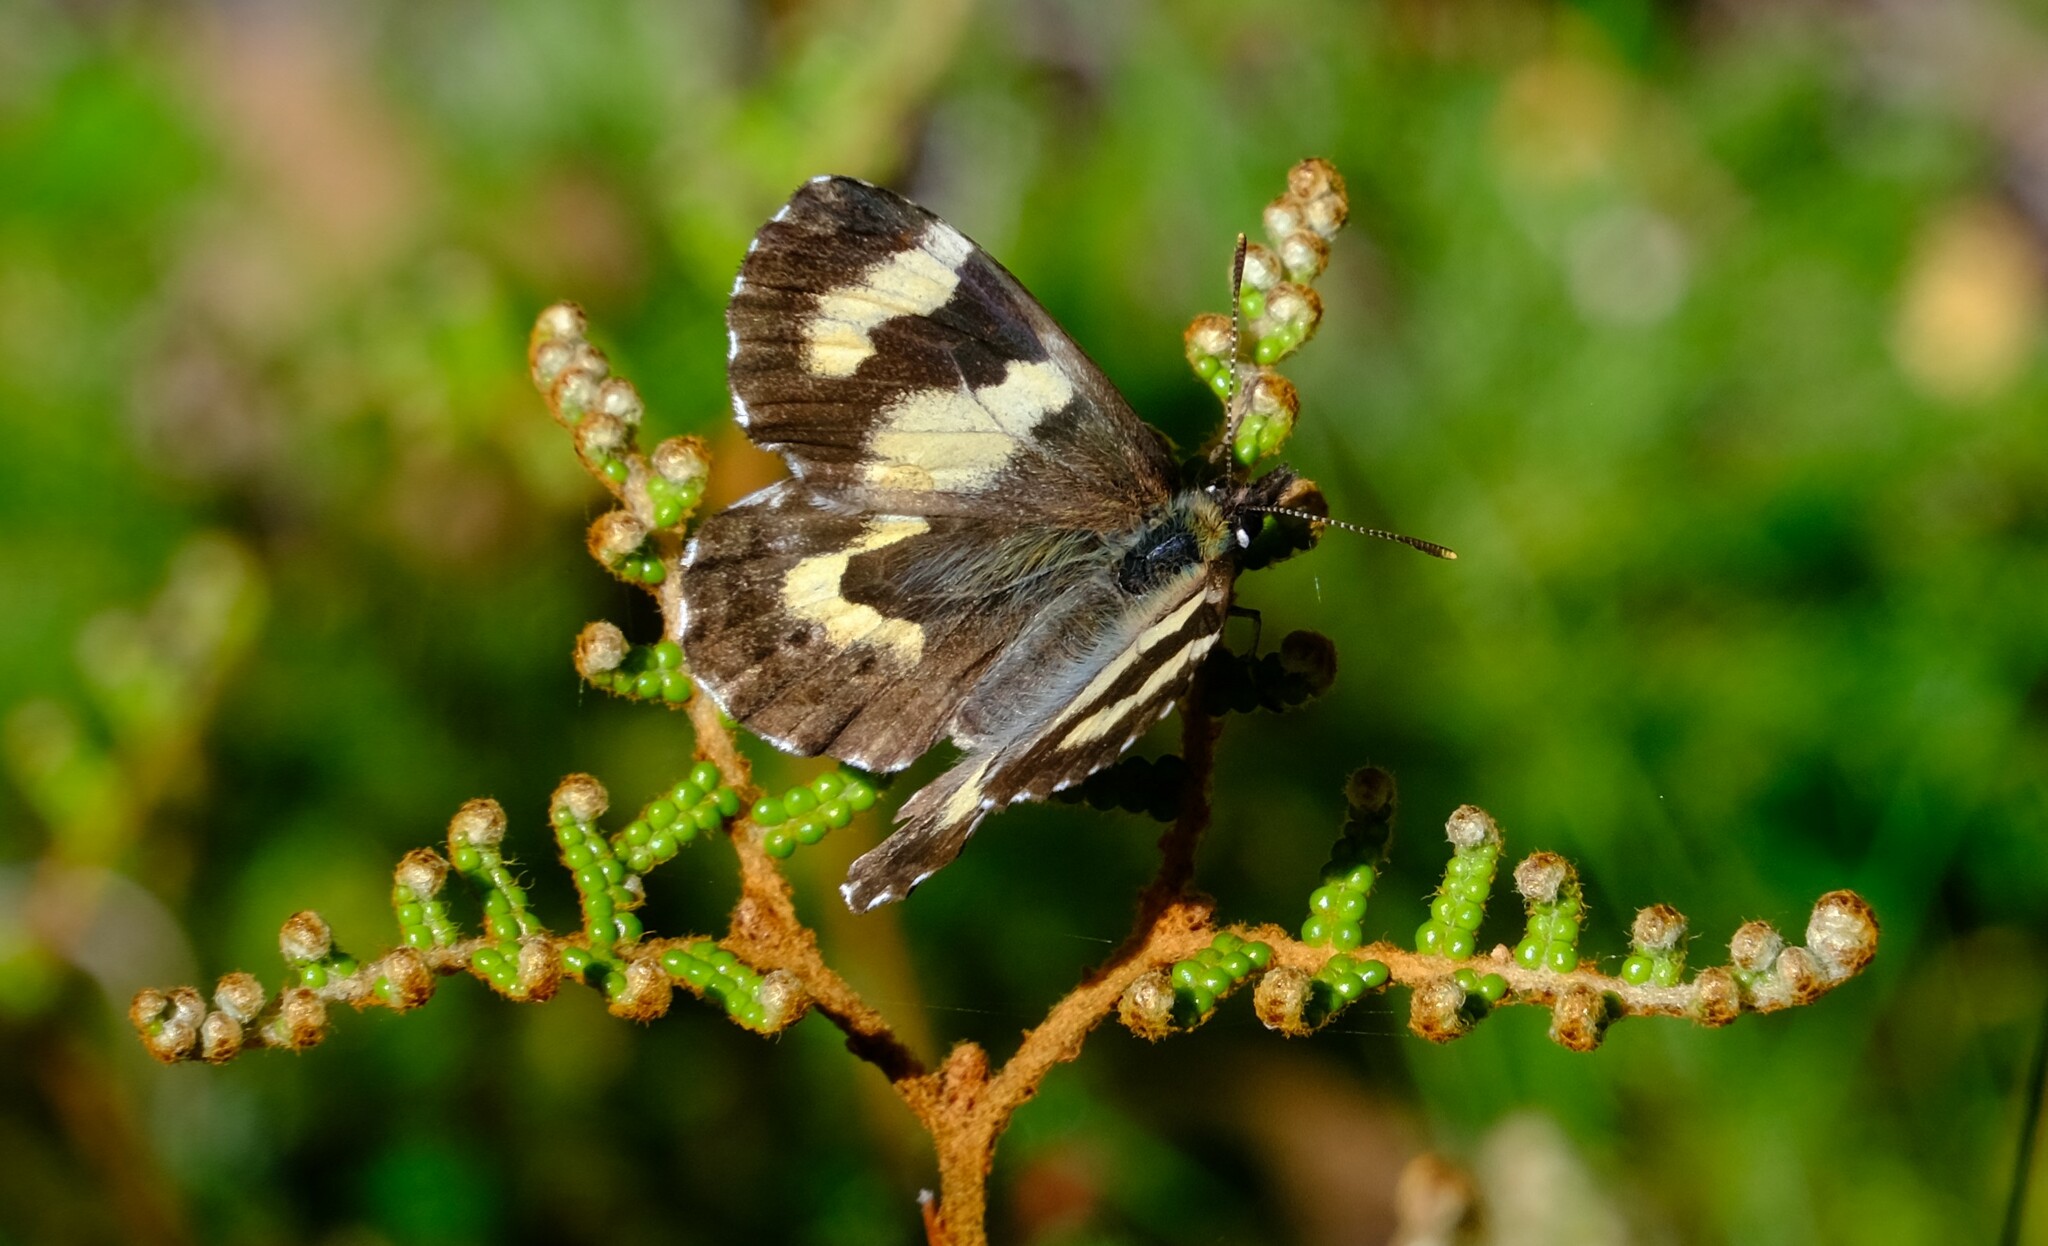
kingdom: Animalia
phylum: Arthropoda
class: Insecta
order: Lepidoptera
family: Nymphalidae
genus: Nesoxenica
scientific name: Nesoxenica leprea
